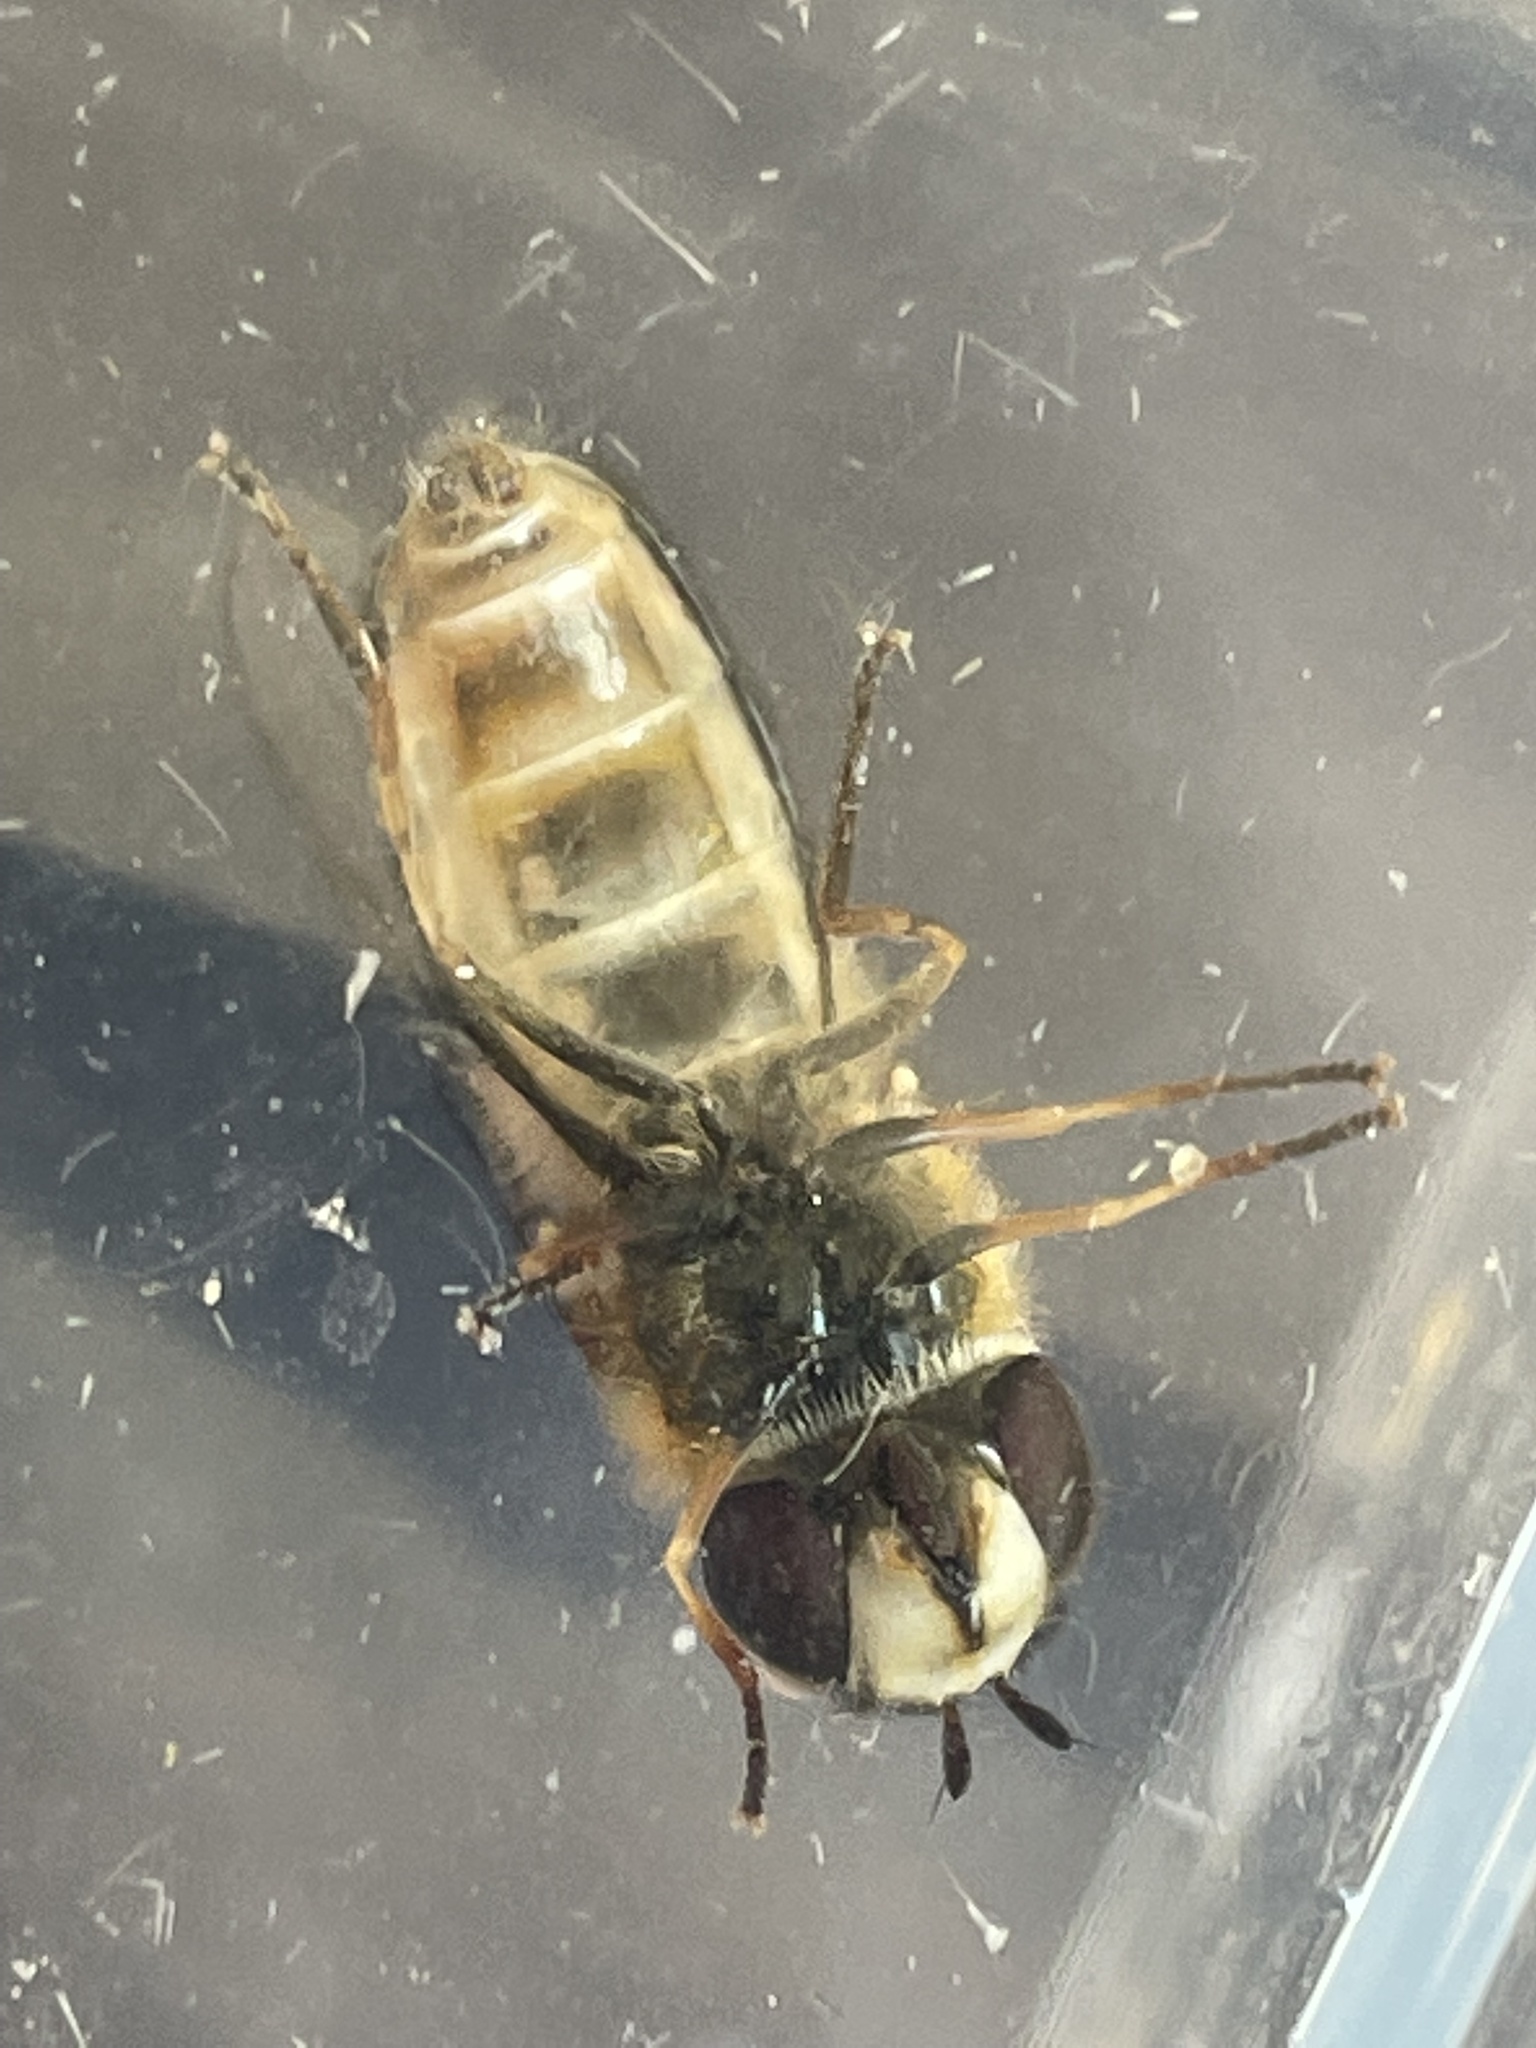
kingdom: Animalia
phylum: Arthropoda
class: Insecta
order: Diptera
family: Syrphidae
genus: Scaeva
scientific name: Scaeva pyrastri
